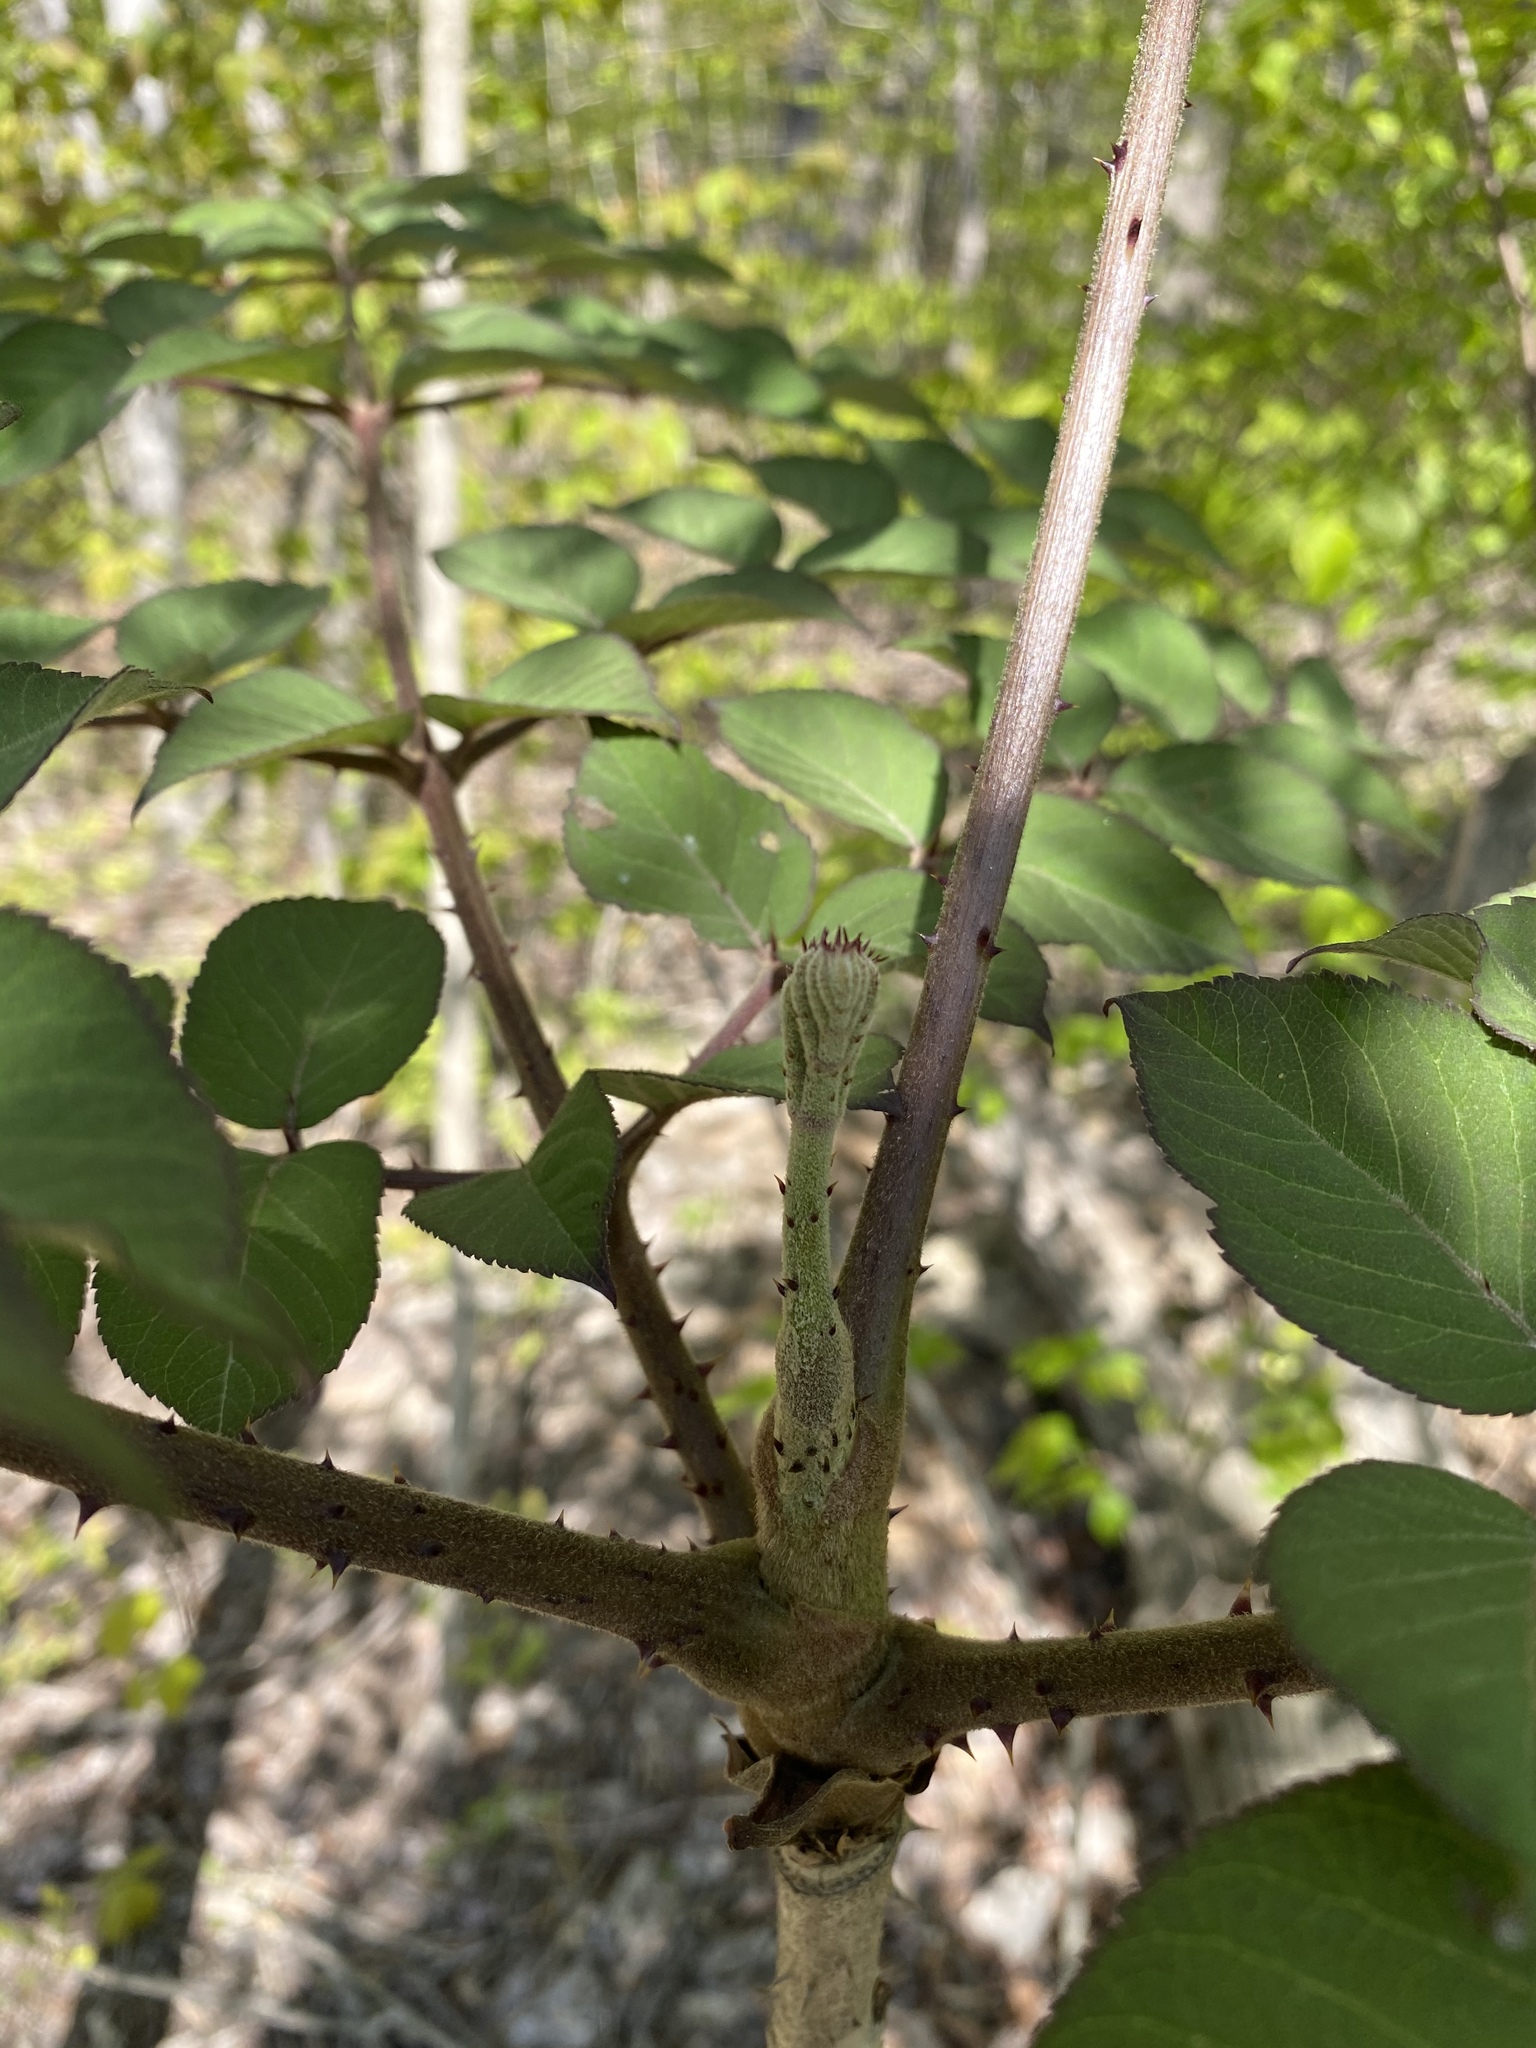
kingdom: Plantae
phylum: Tracheophyta
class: Magnoliopsida
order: Apiales
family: Araliaceae
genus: Aralia
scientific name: Aralia elata
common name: Japanese angelica-tree
